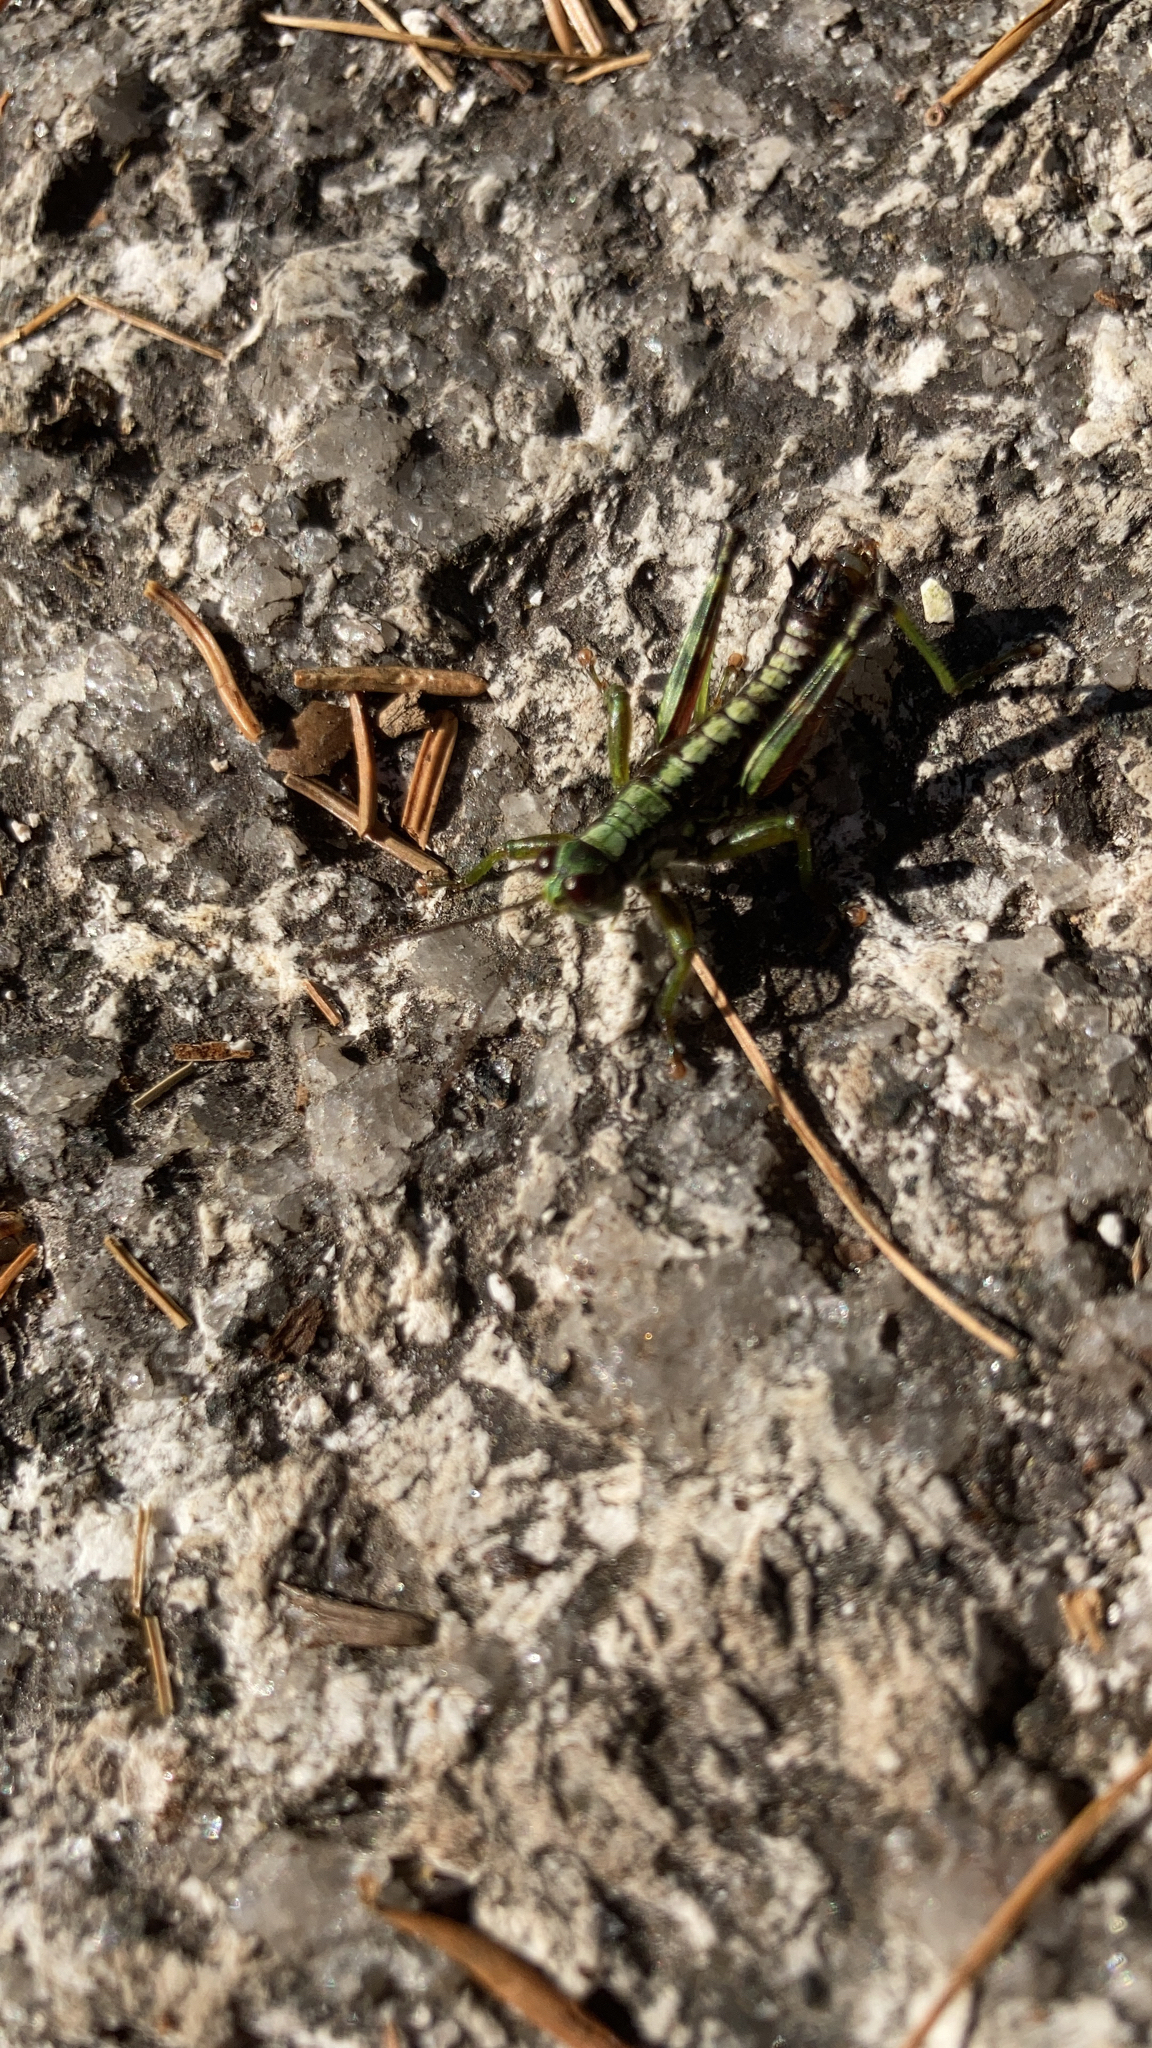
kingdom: Animalia
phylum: Arthropoda
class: Insecta
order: Orthoptera
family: Acrididae
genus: Booneacris
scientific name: Booneacris glacialis
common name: Wingless mountain grasshopper
